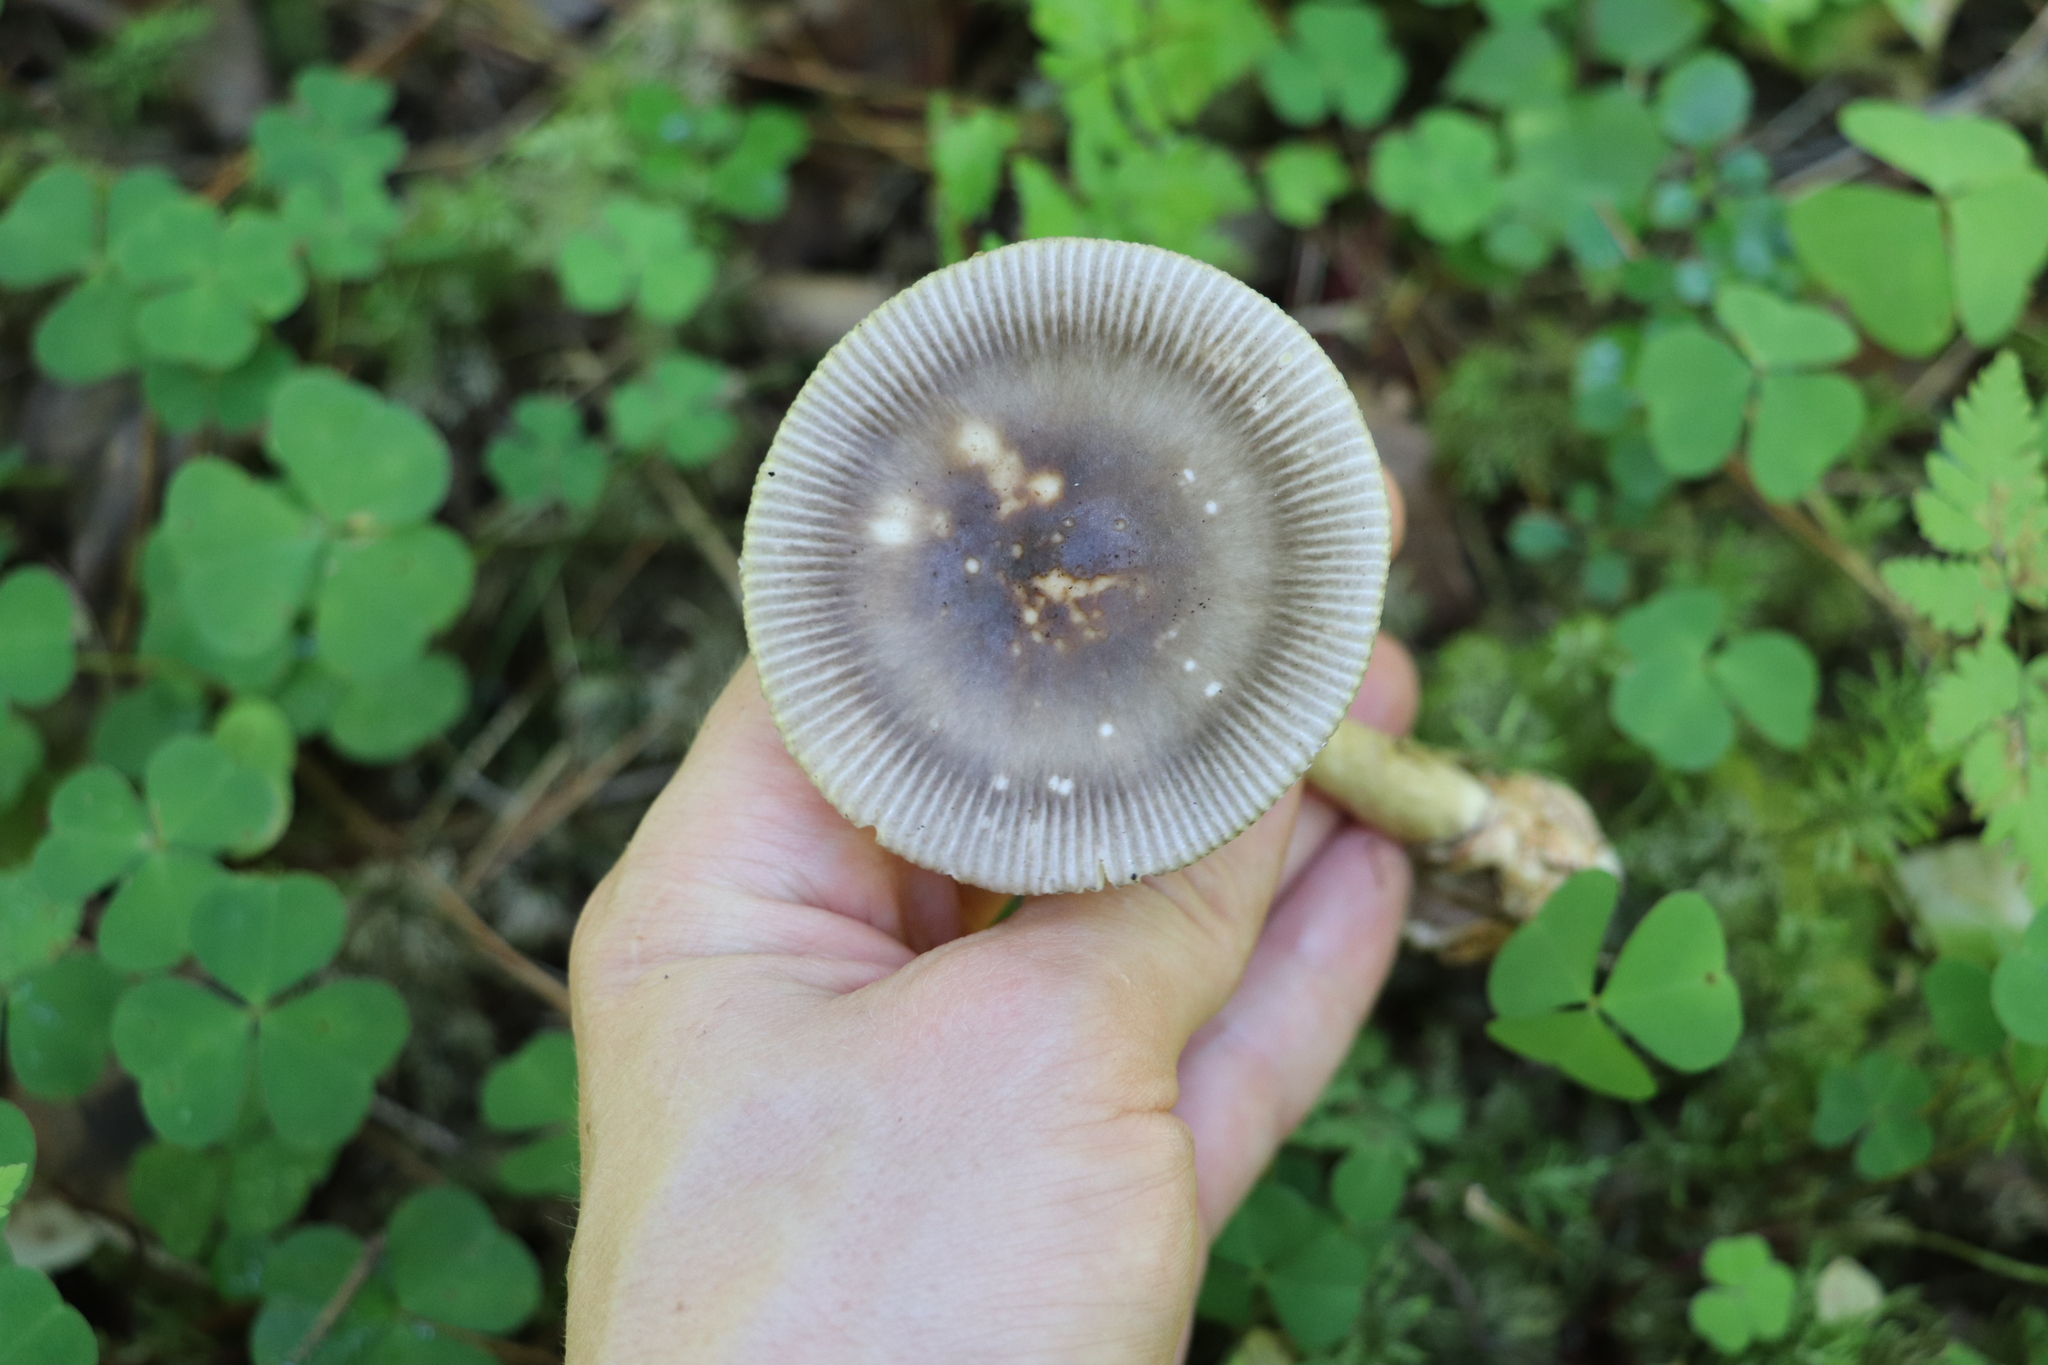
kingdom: Fungi
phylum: Basidiomycota
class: Agaricomycetes
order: Agaricales
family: Amanitaceae
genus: Amanita
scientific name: Amanita battarrae
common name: Banded amanita
